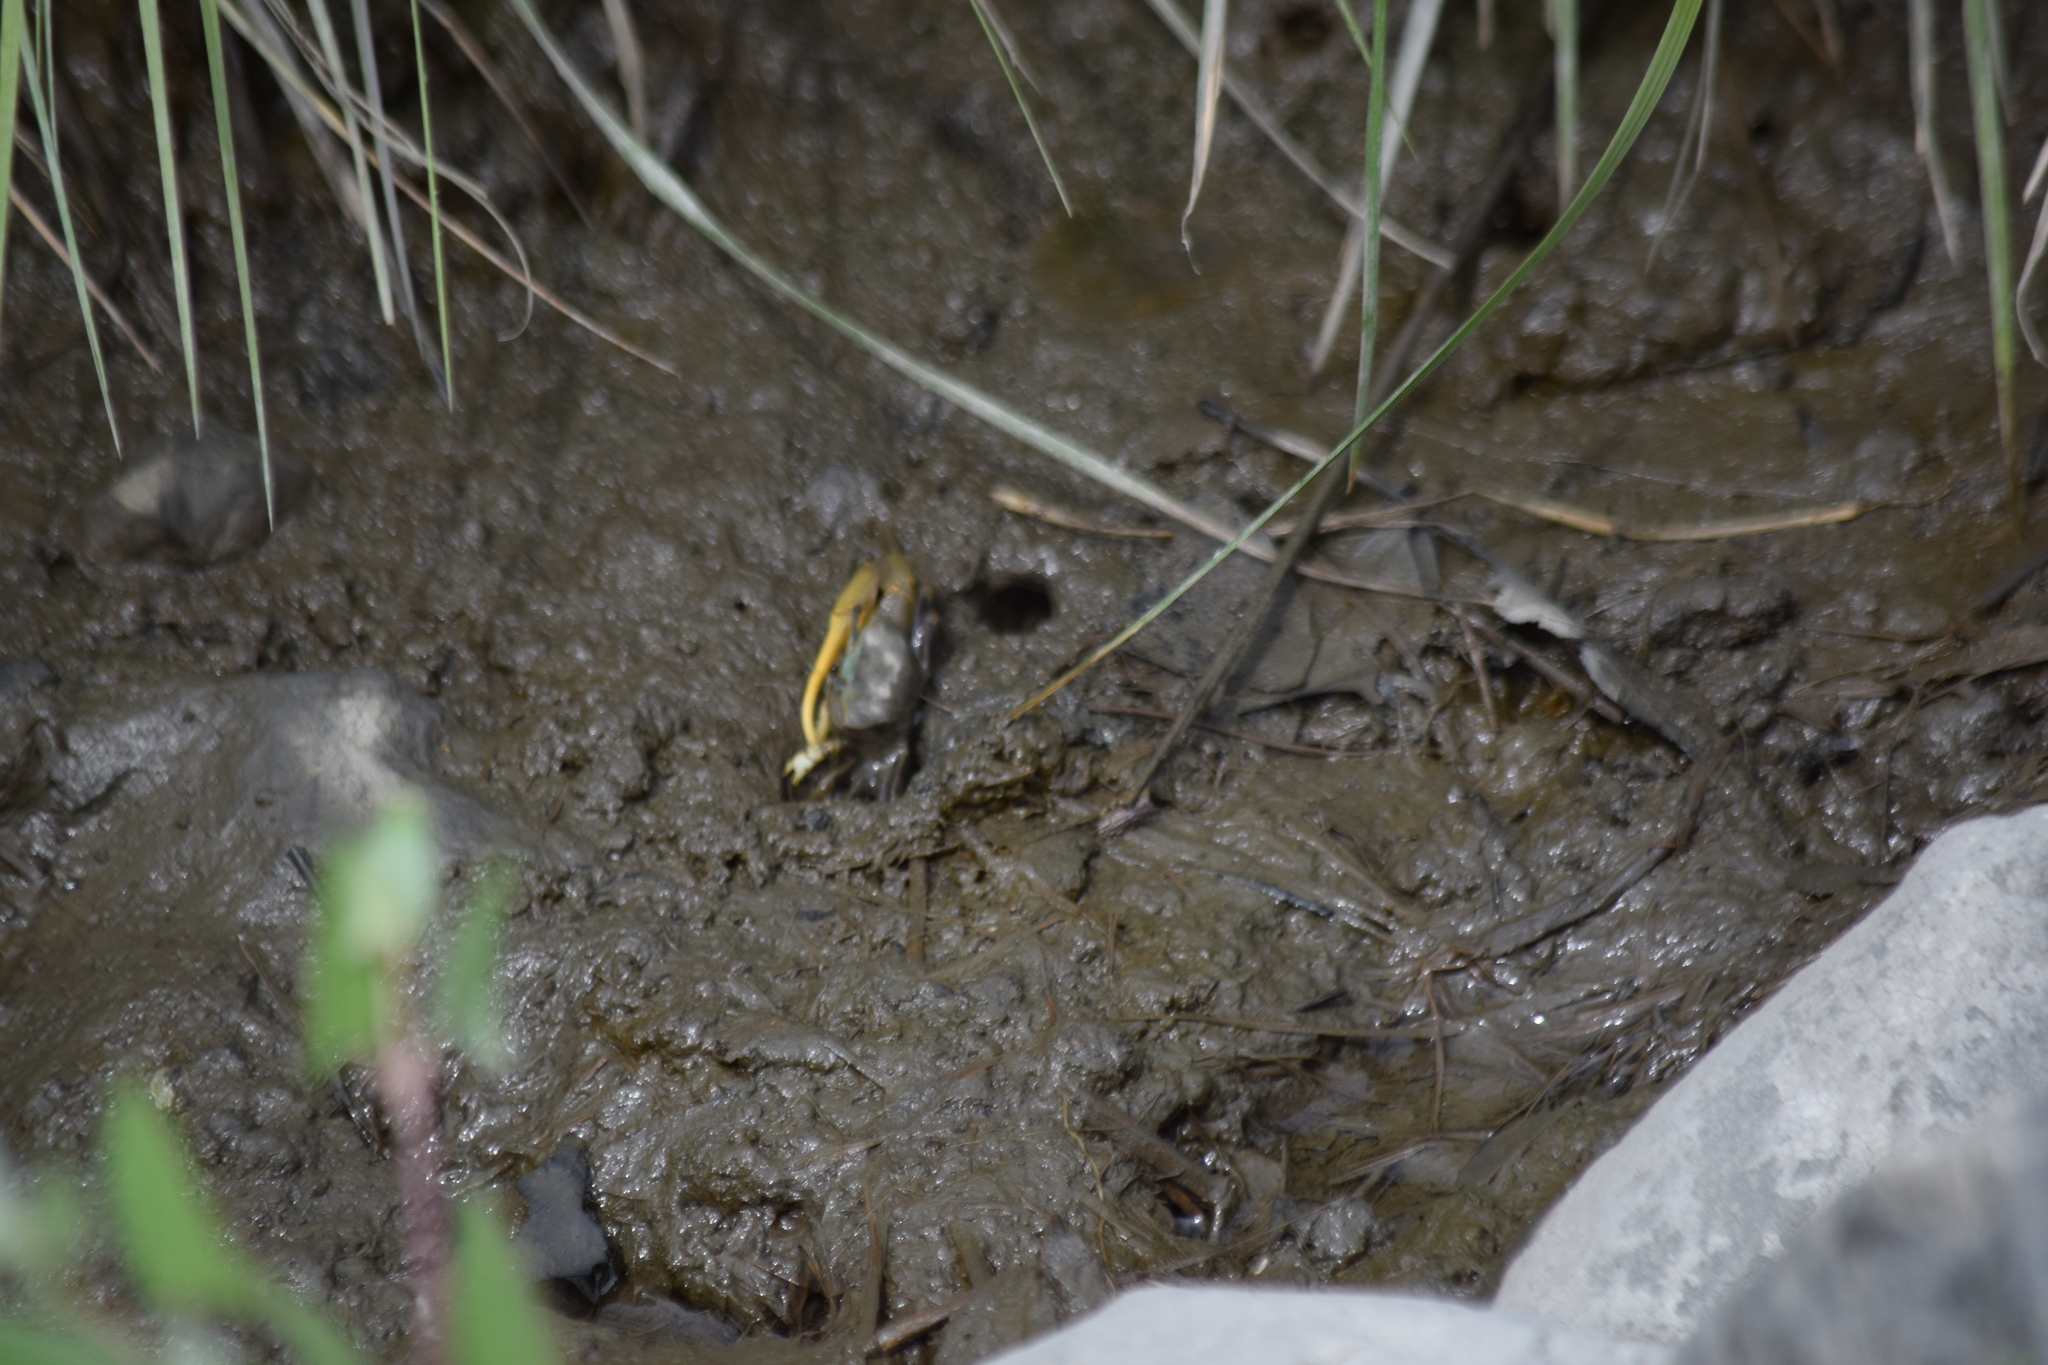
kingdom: Animalia
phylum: Arthropoda
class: Malacostraca
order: Decapoda
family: Ocypodidae
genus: Minuca
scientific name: Minuca pugnax
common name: Mud fiddler crab
